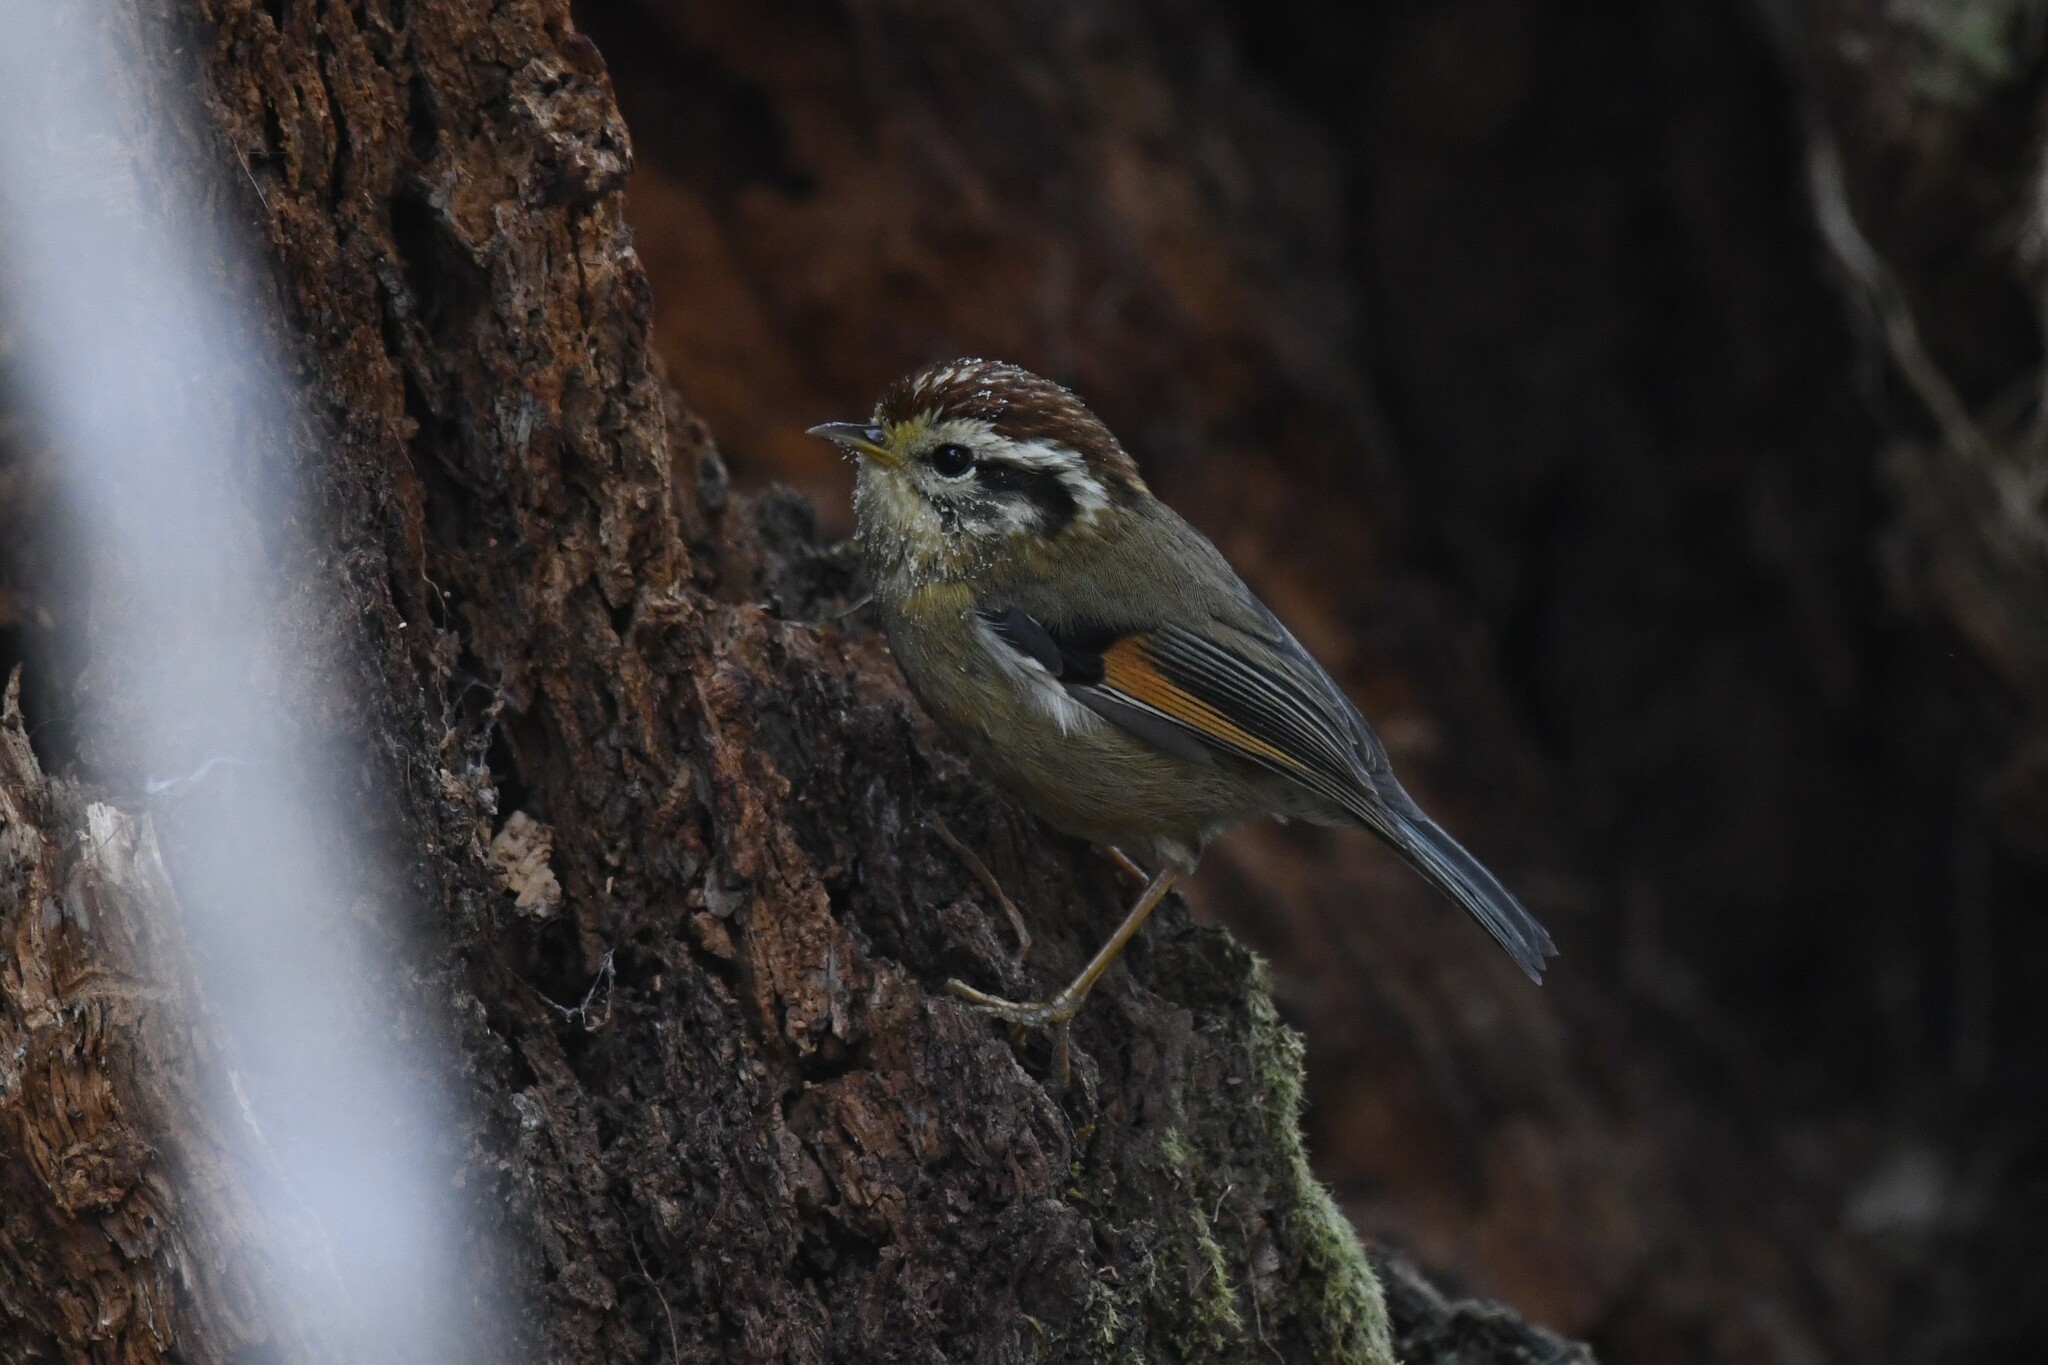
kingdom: Animalia
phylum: Chordata
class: Aves
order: Passeriformes
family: Pellorneidae
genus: Alcippe
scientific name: Alcippe castaneceps
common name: Rufous-winged fulvetta
